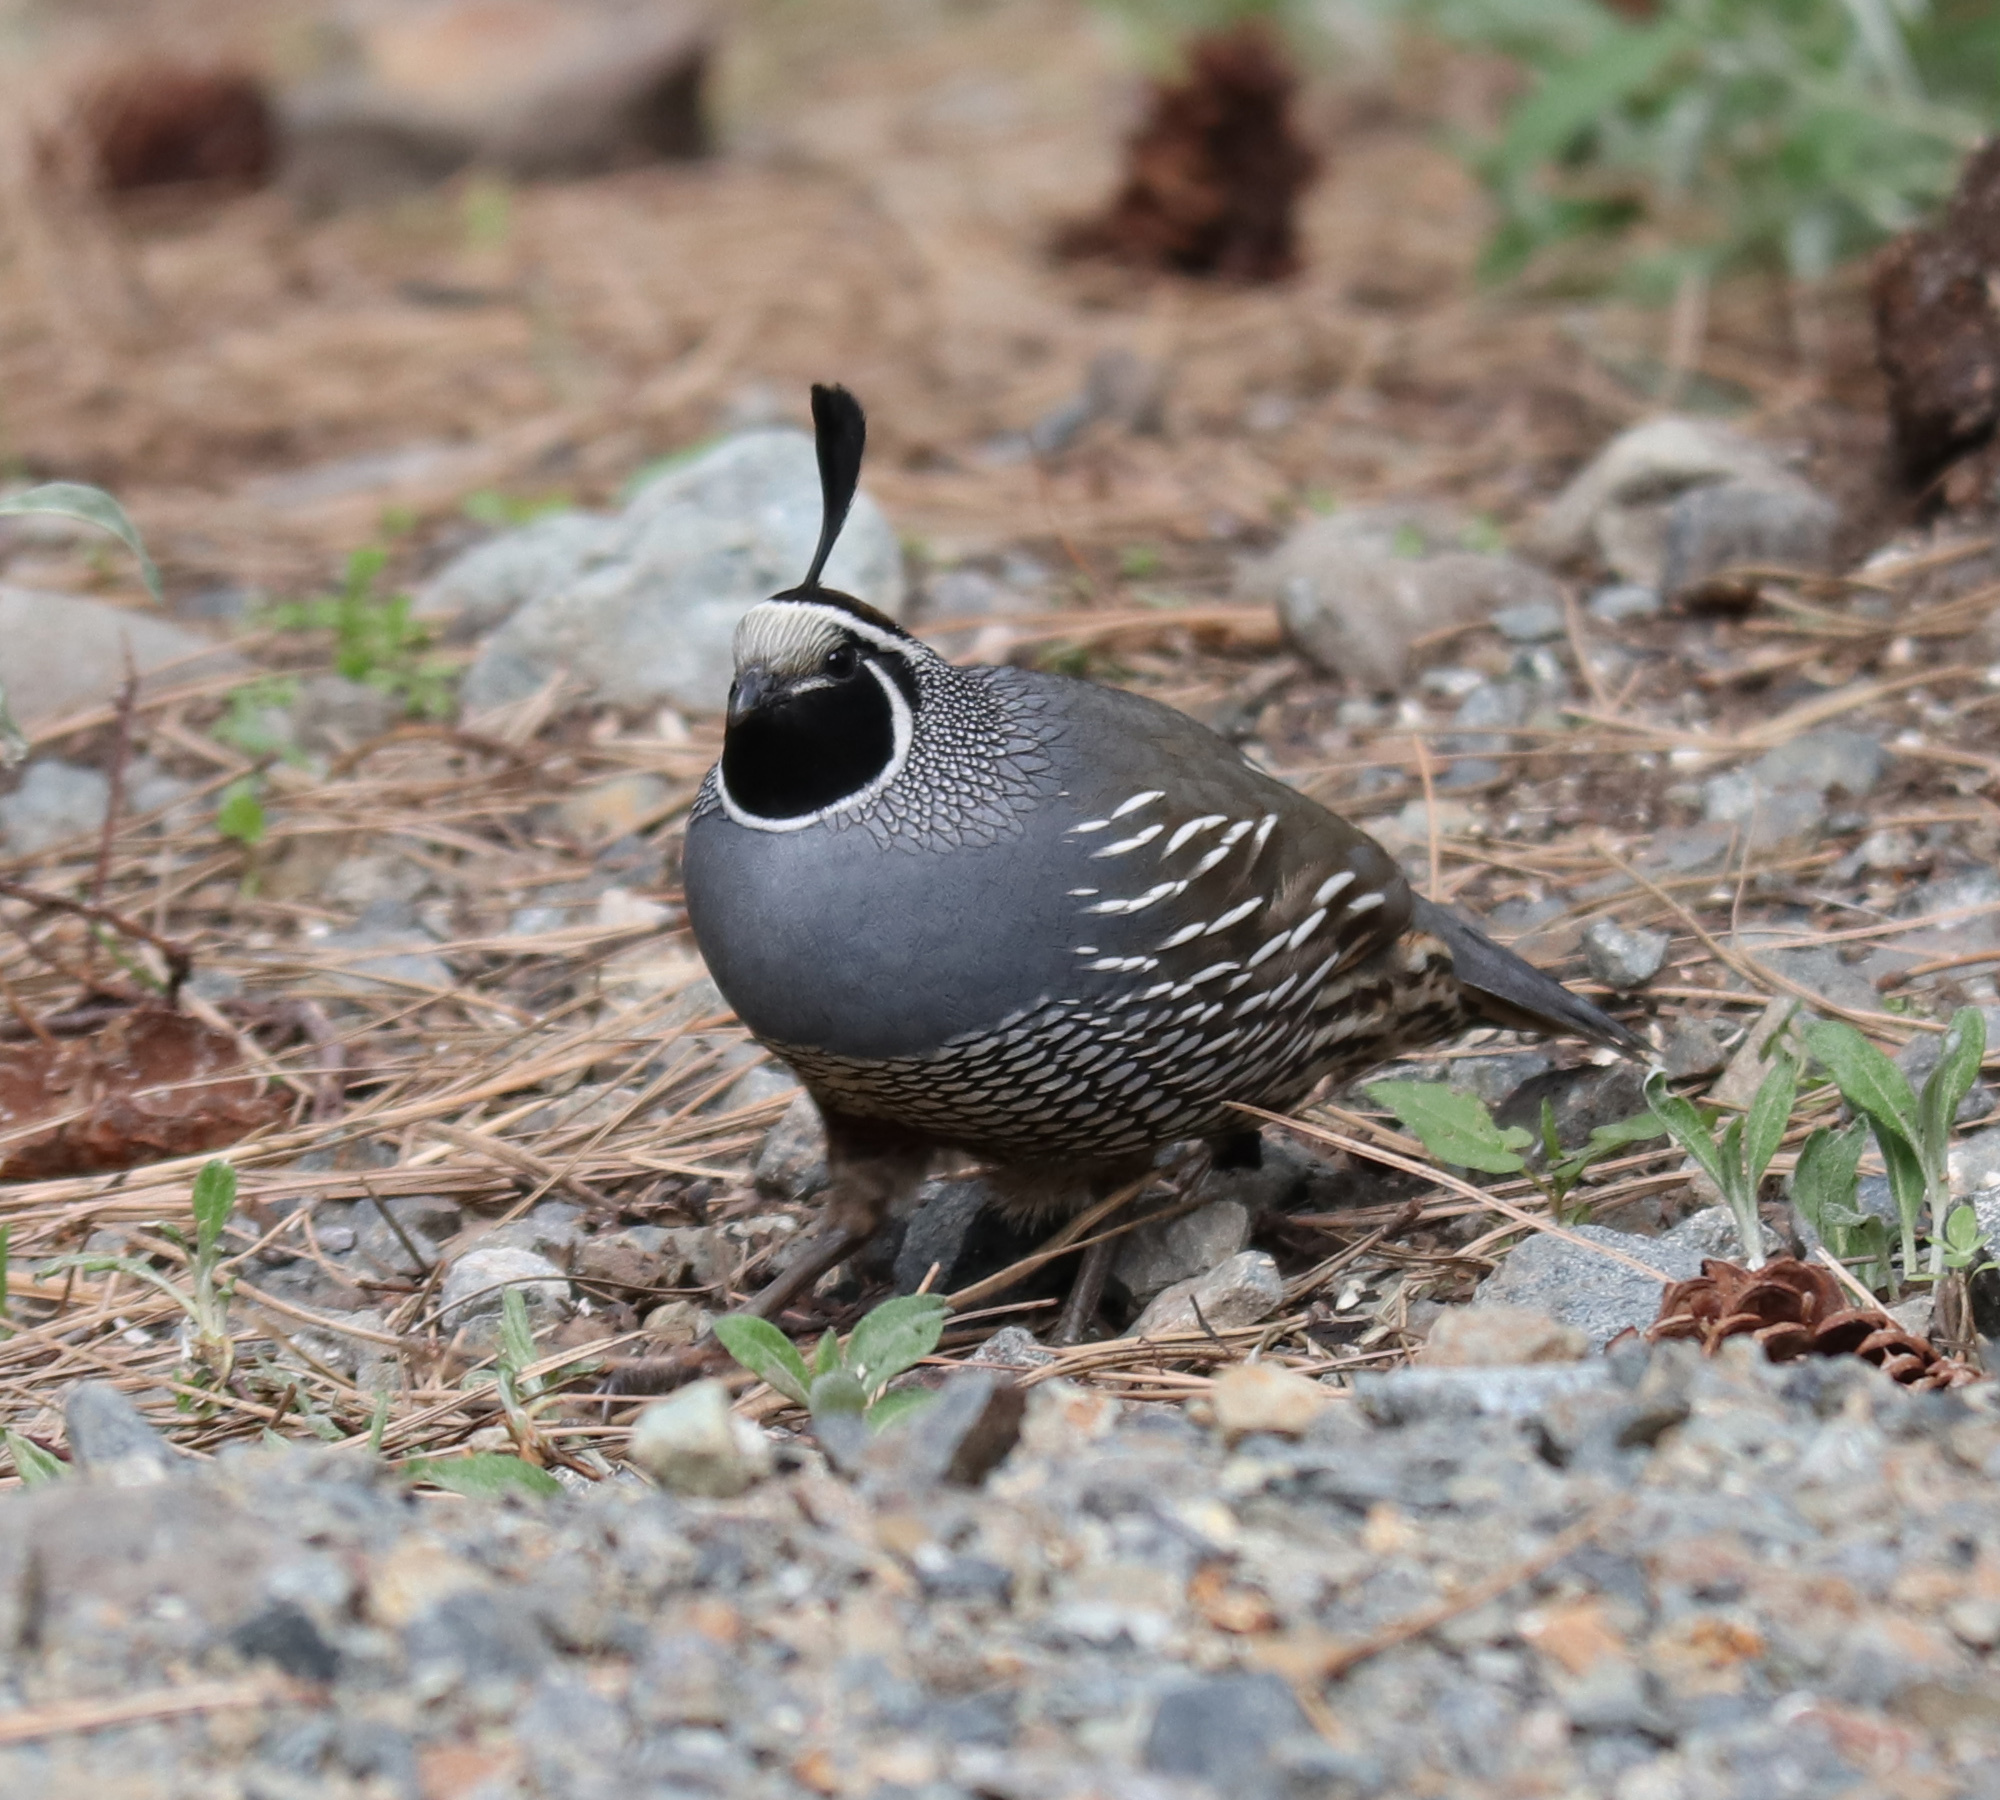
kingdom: Animalia
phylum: Chordata
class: Aves
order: Galliformes
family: Odontophoridae
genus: Callipepla
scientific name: Callipepla californica
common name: California quail
